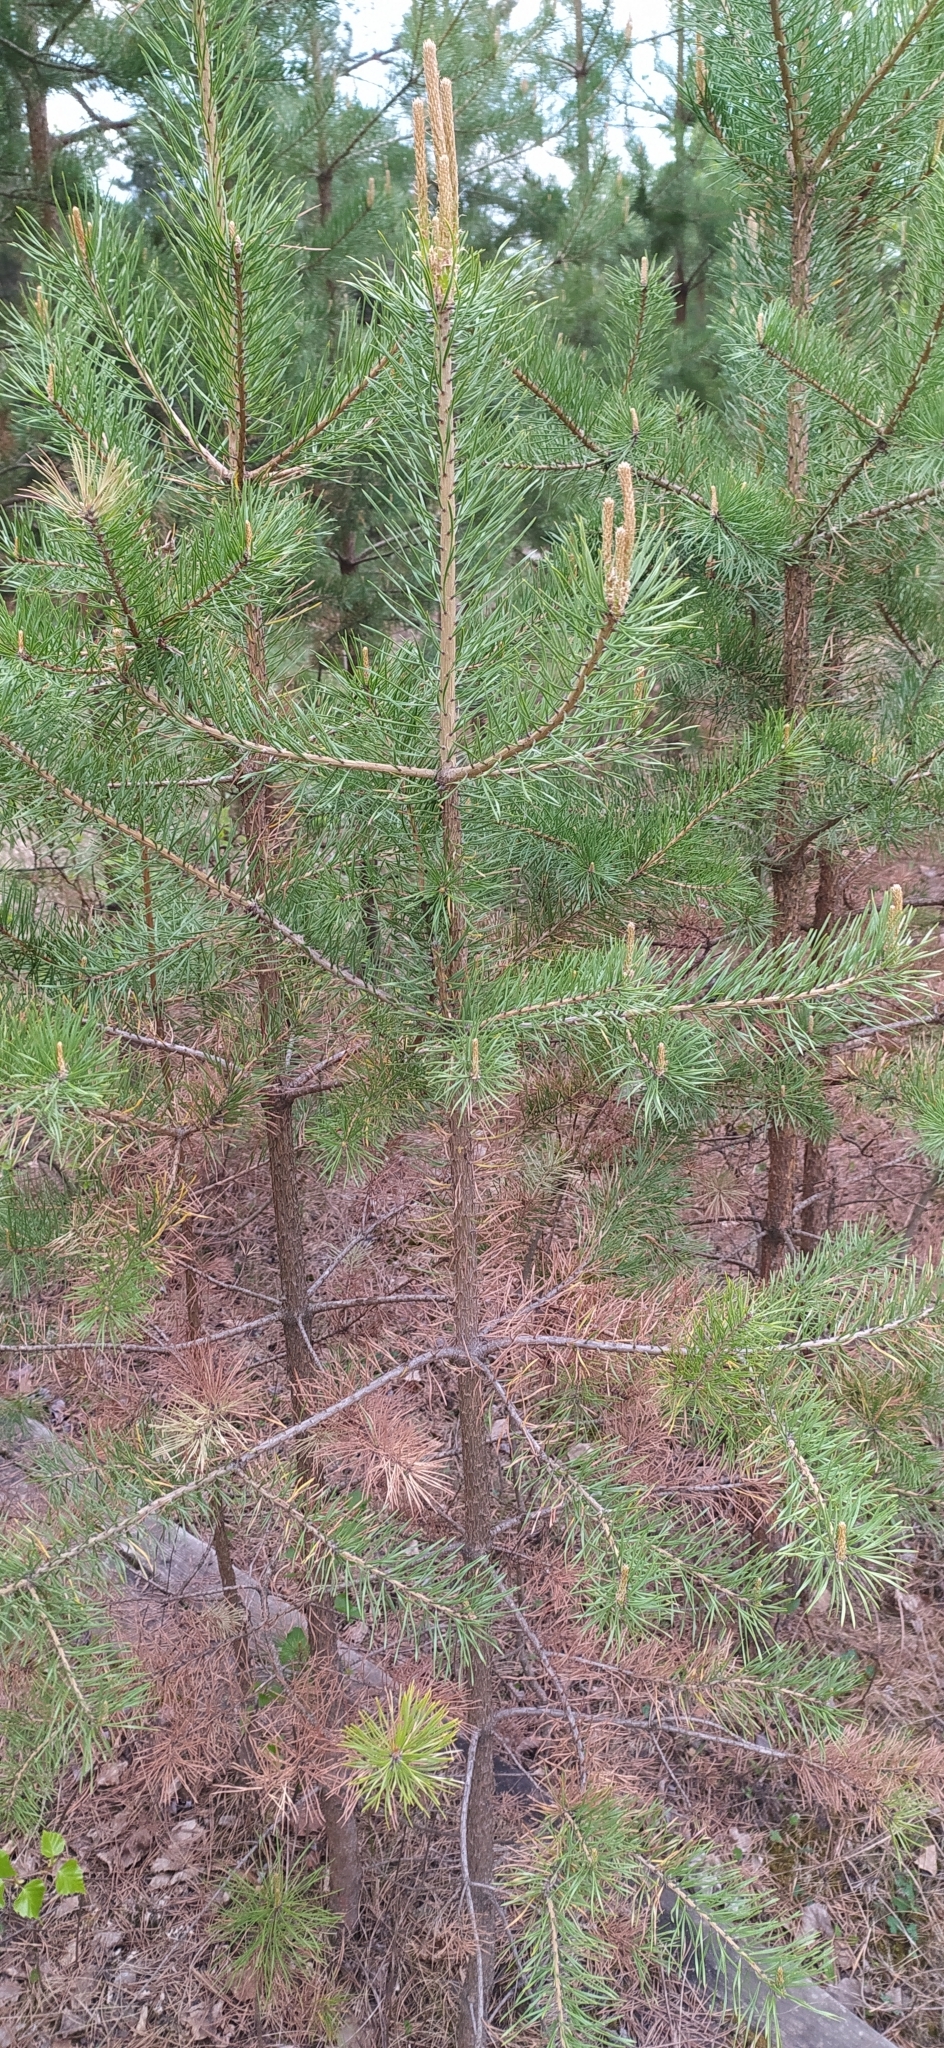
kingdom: Plantae
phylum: Tracheophyta
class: Pinopsida
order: Pinales
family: Pinaceae
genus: Pinus
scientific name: Pinus sylvestris
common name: Scots pine
